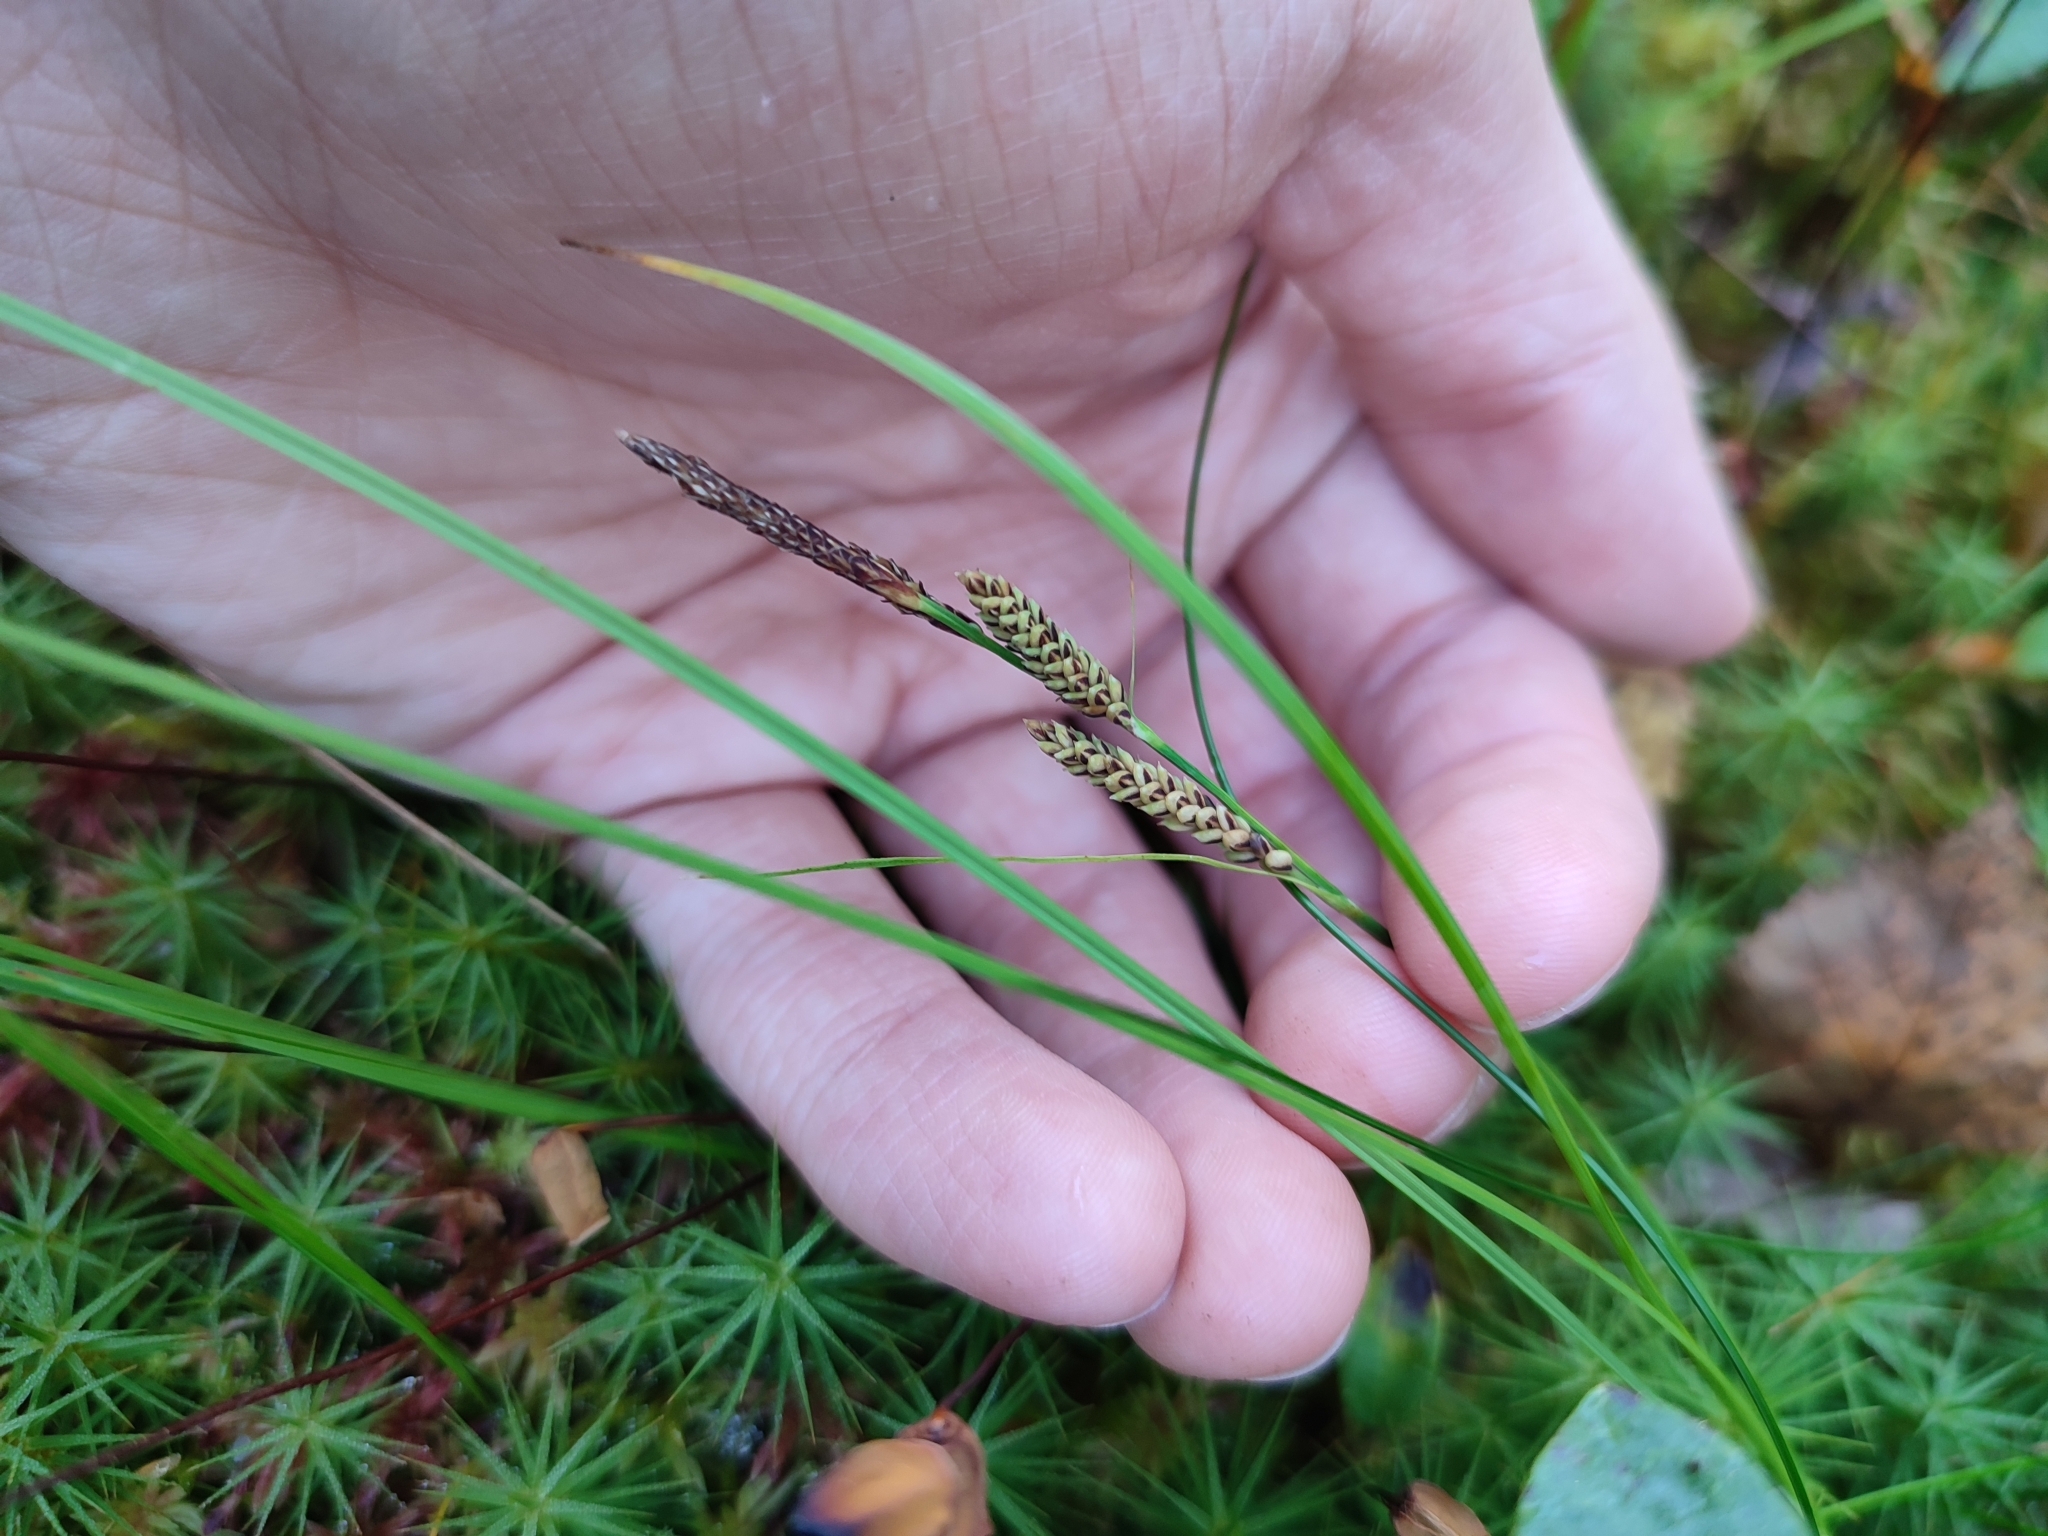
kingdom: Plantae
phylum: Tracheophyta
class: Liliopsida
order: Poales
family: Cyperaceae
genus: Carex
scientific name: Carex nigra
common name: Common sedge
